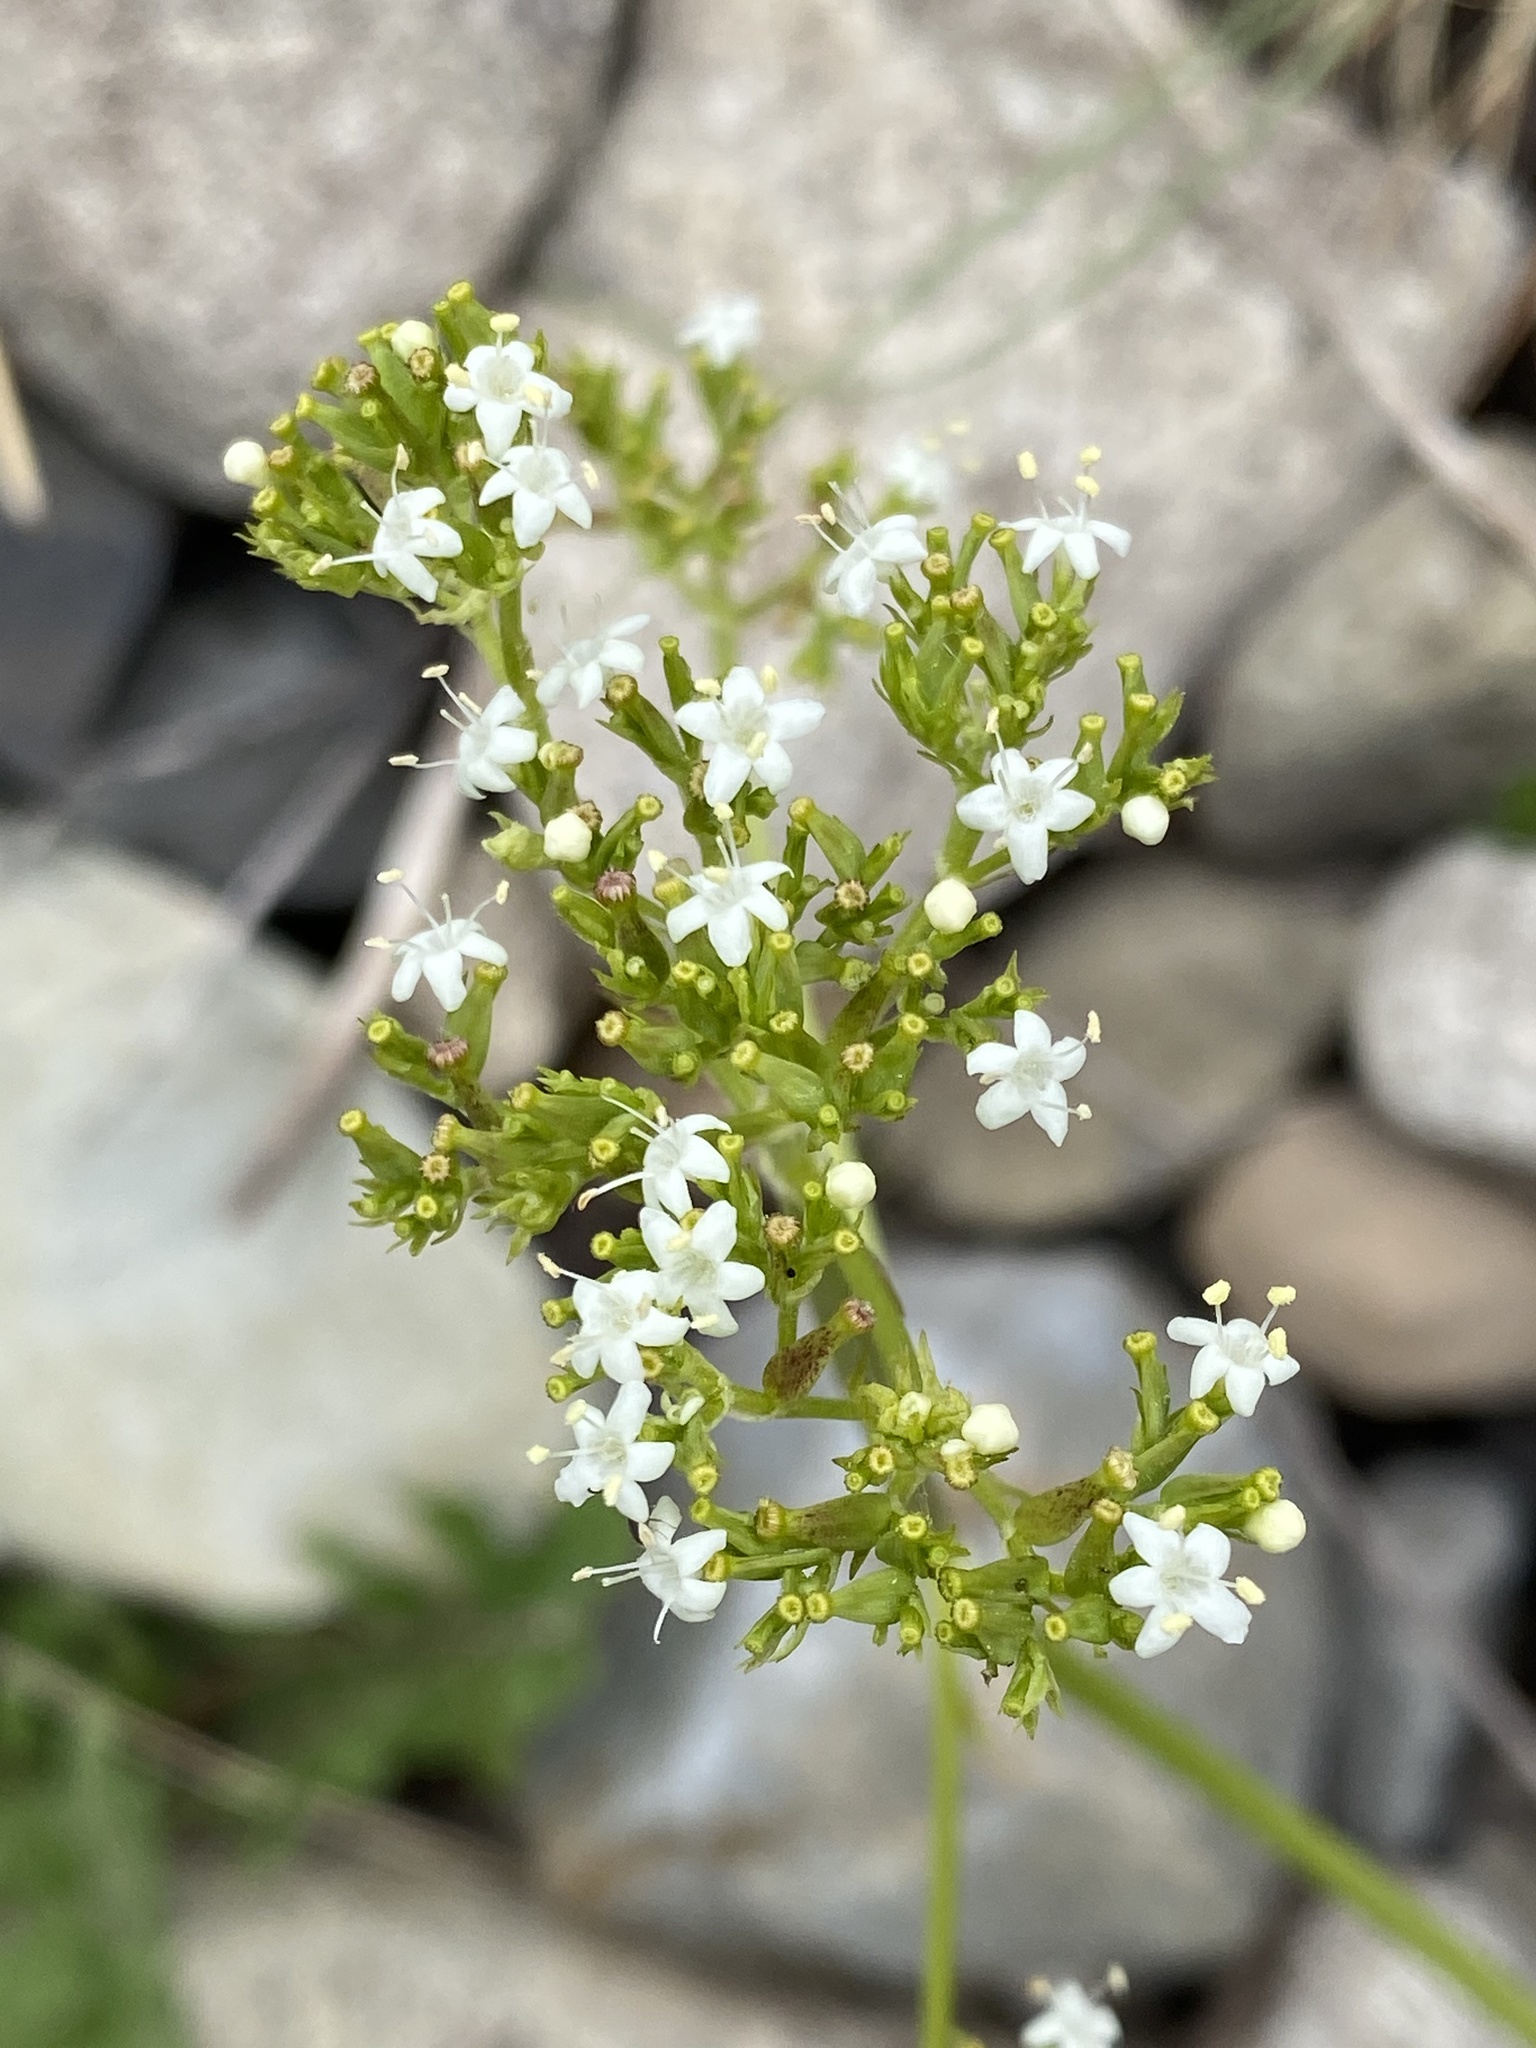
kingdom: Plantae
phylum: Tracheophyta
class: Magnoliopsida
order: Dipsacales
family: Caprifoliaceae
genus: Valeriana
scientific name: Valeriana occidentalis
